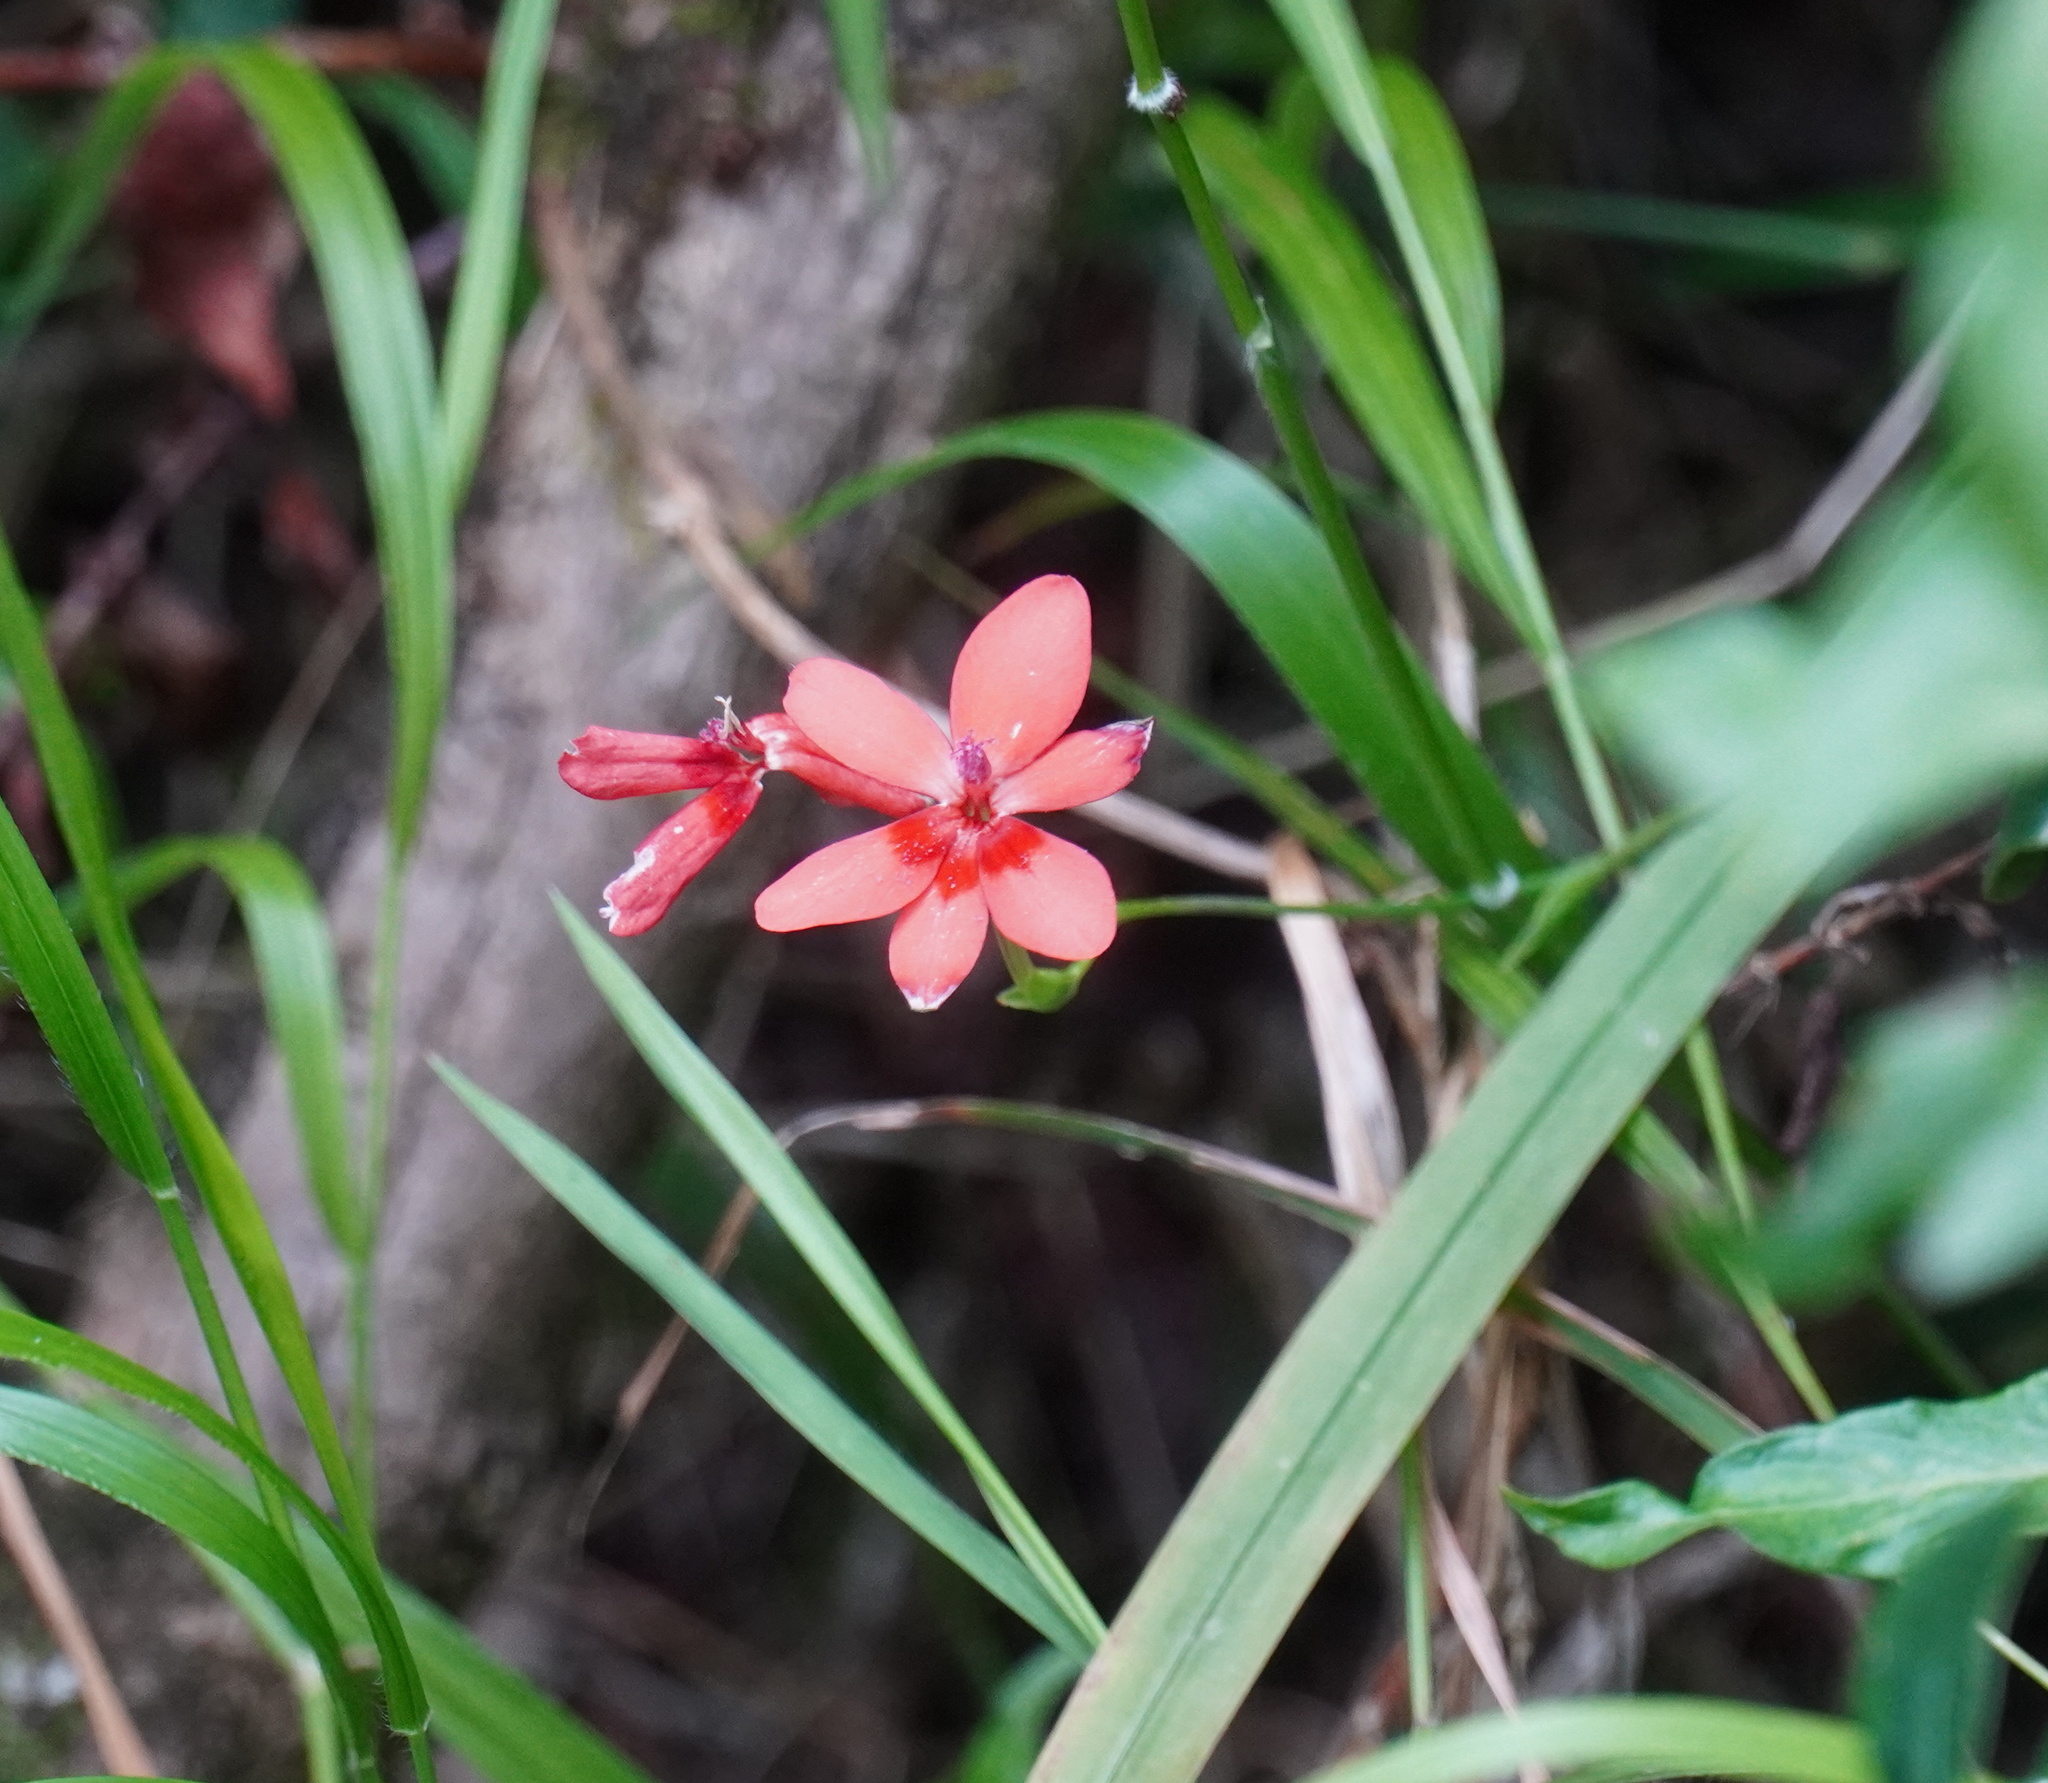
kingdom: Plantae
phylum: Tracheophyta
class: Liliopsida
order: Asparagales
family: Iridaceae
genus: Freesia
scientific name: Freesia laxa
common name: False freesia
